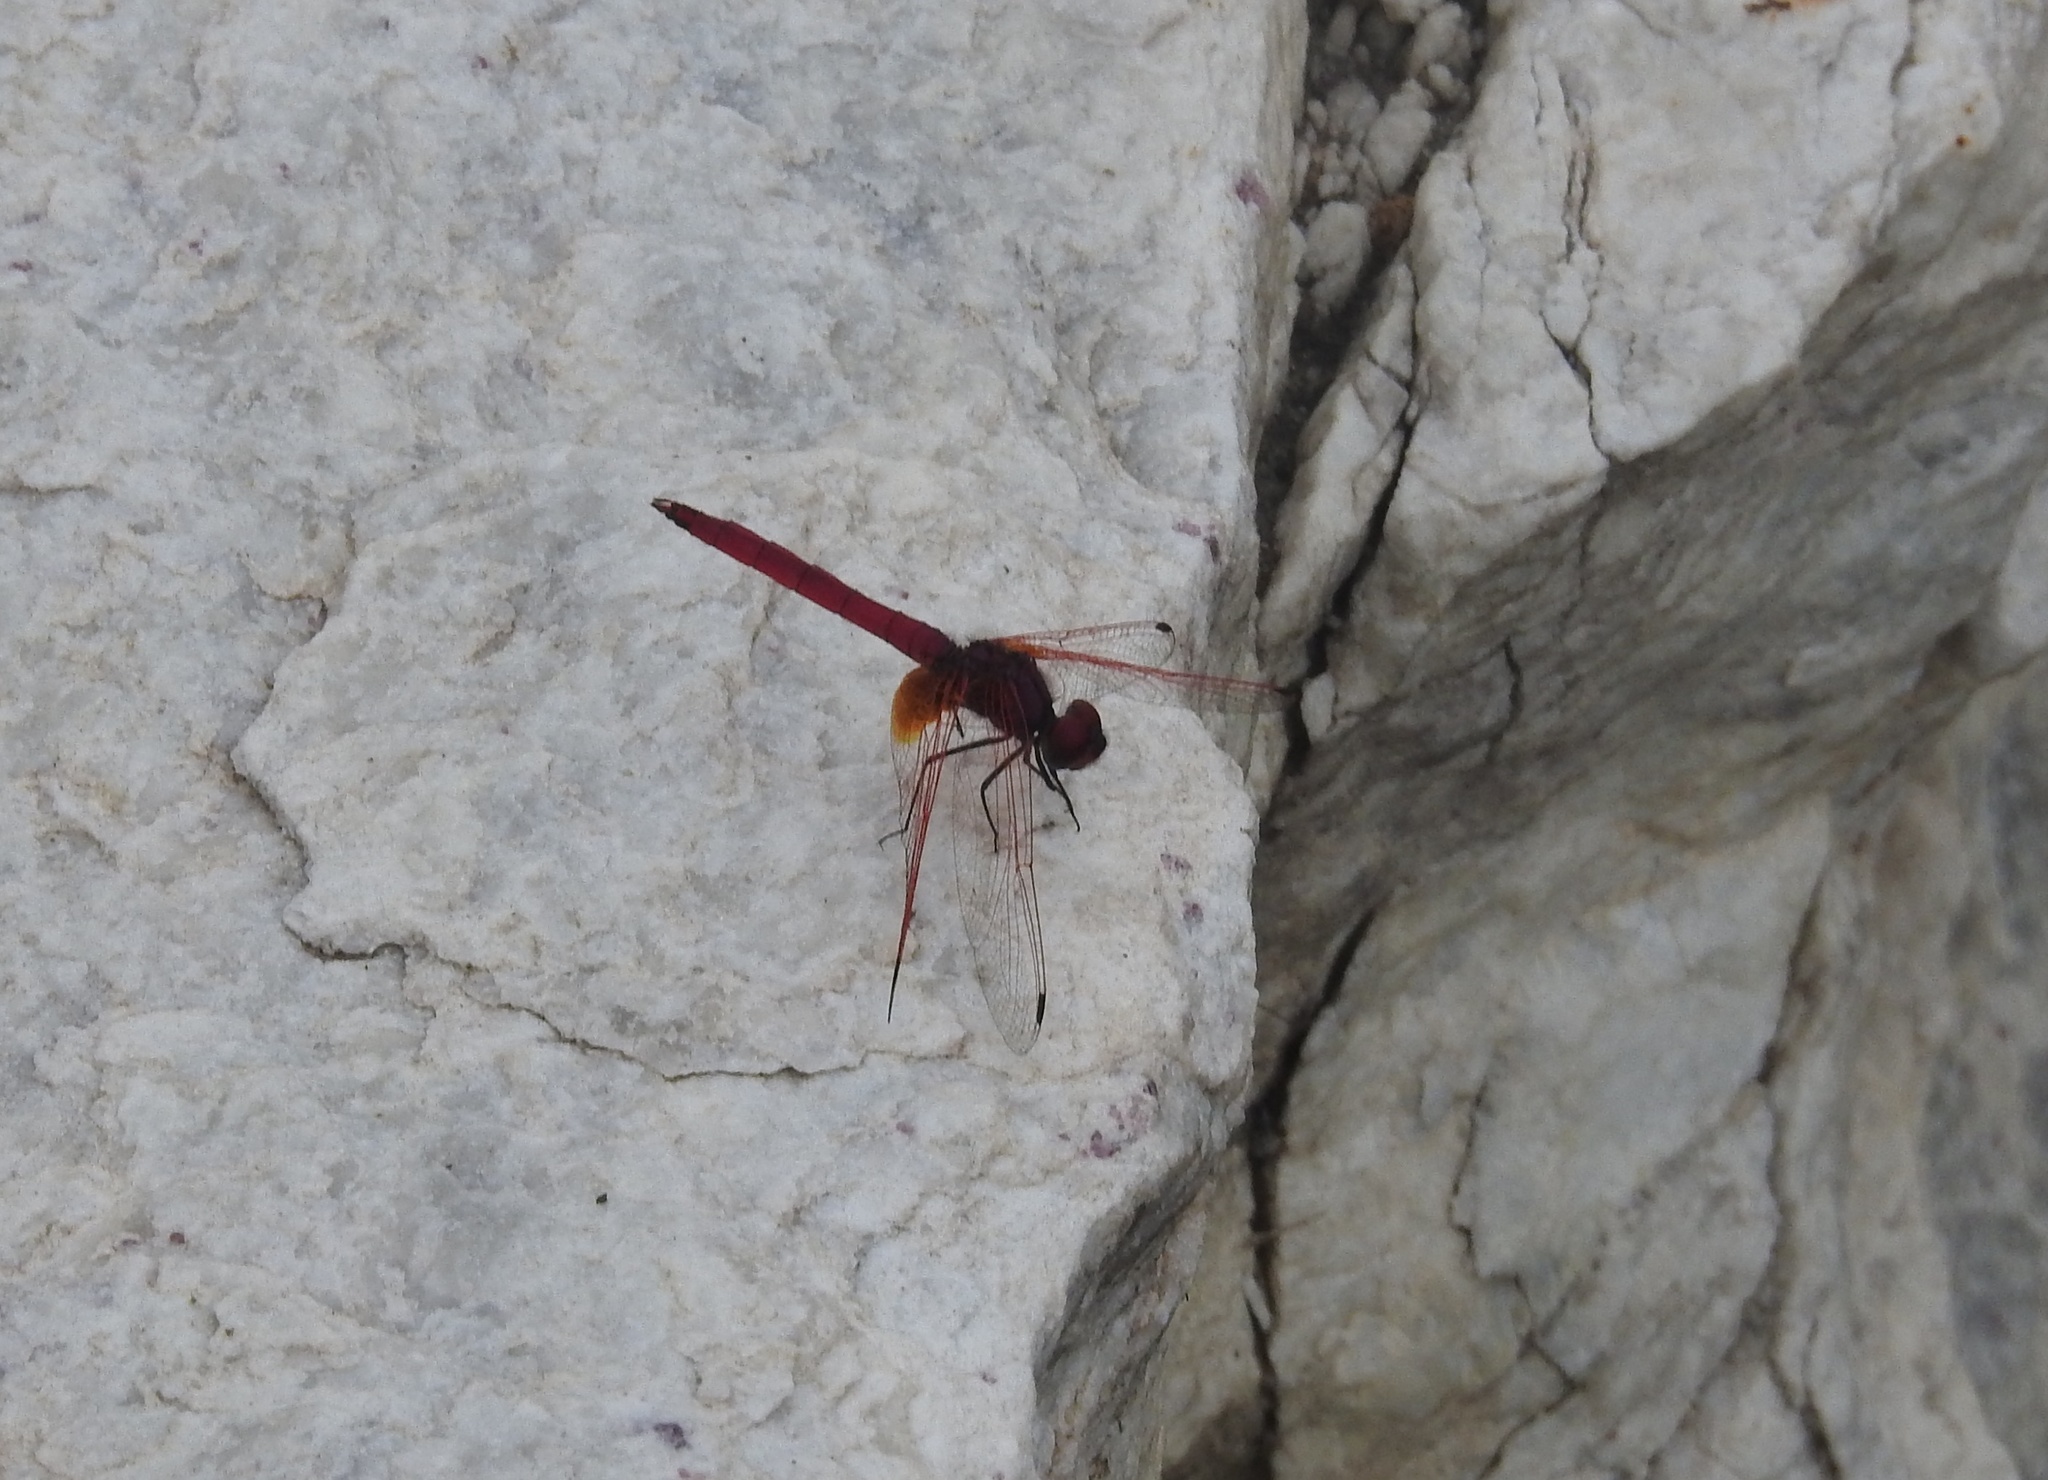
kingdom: Animalia
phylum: Arthropoda
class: Insecta
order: Odonata
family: Libellulidae
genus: Trithemis
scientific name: Trithemis aurora
